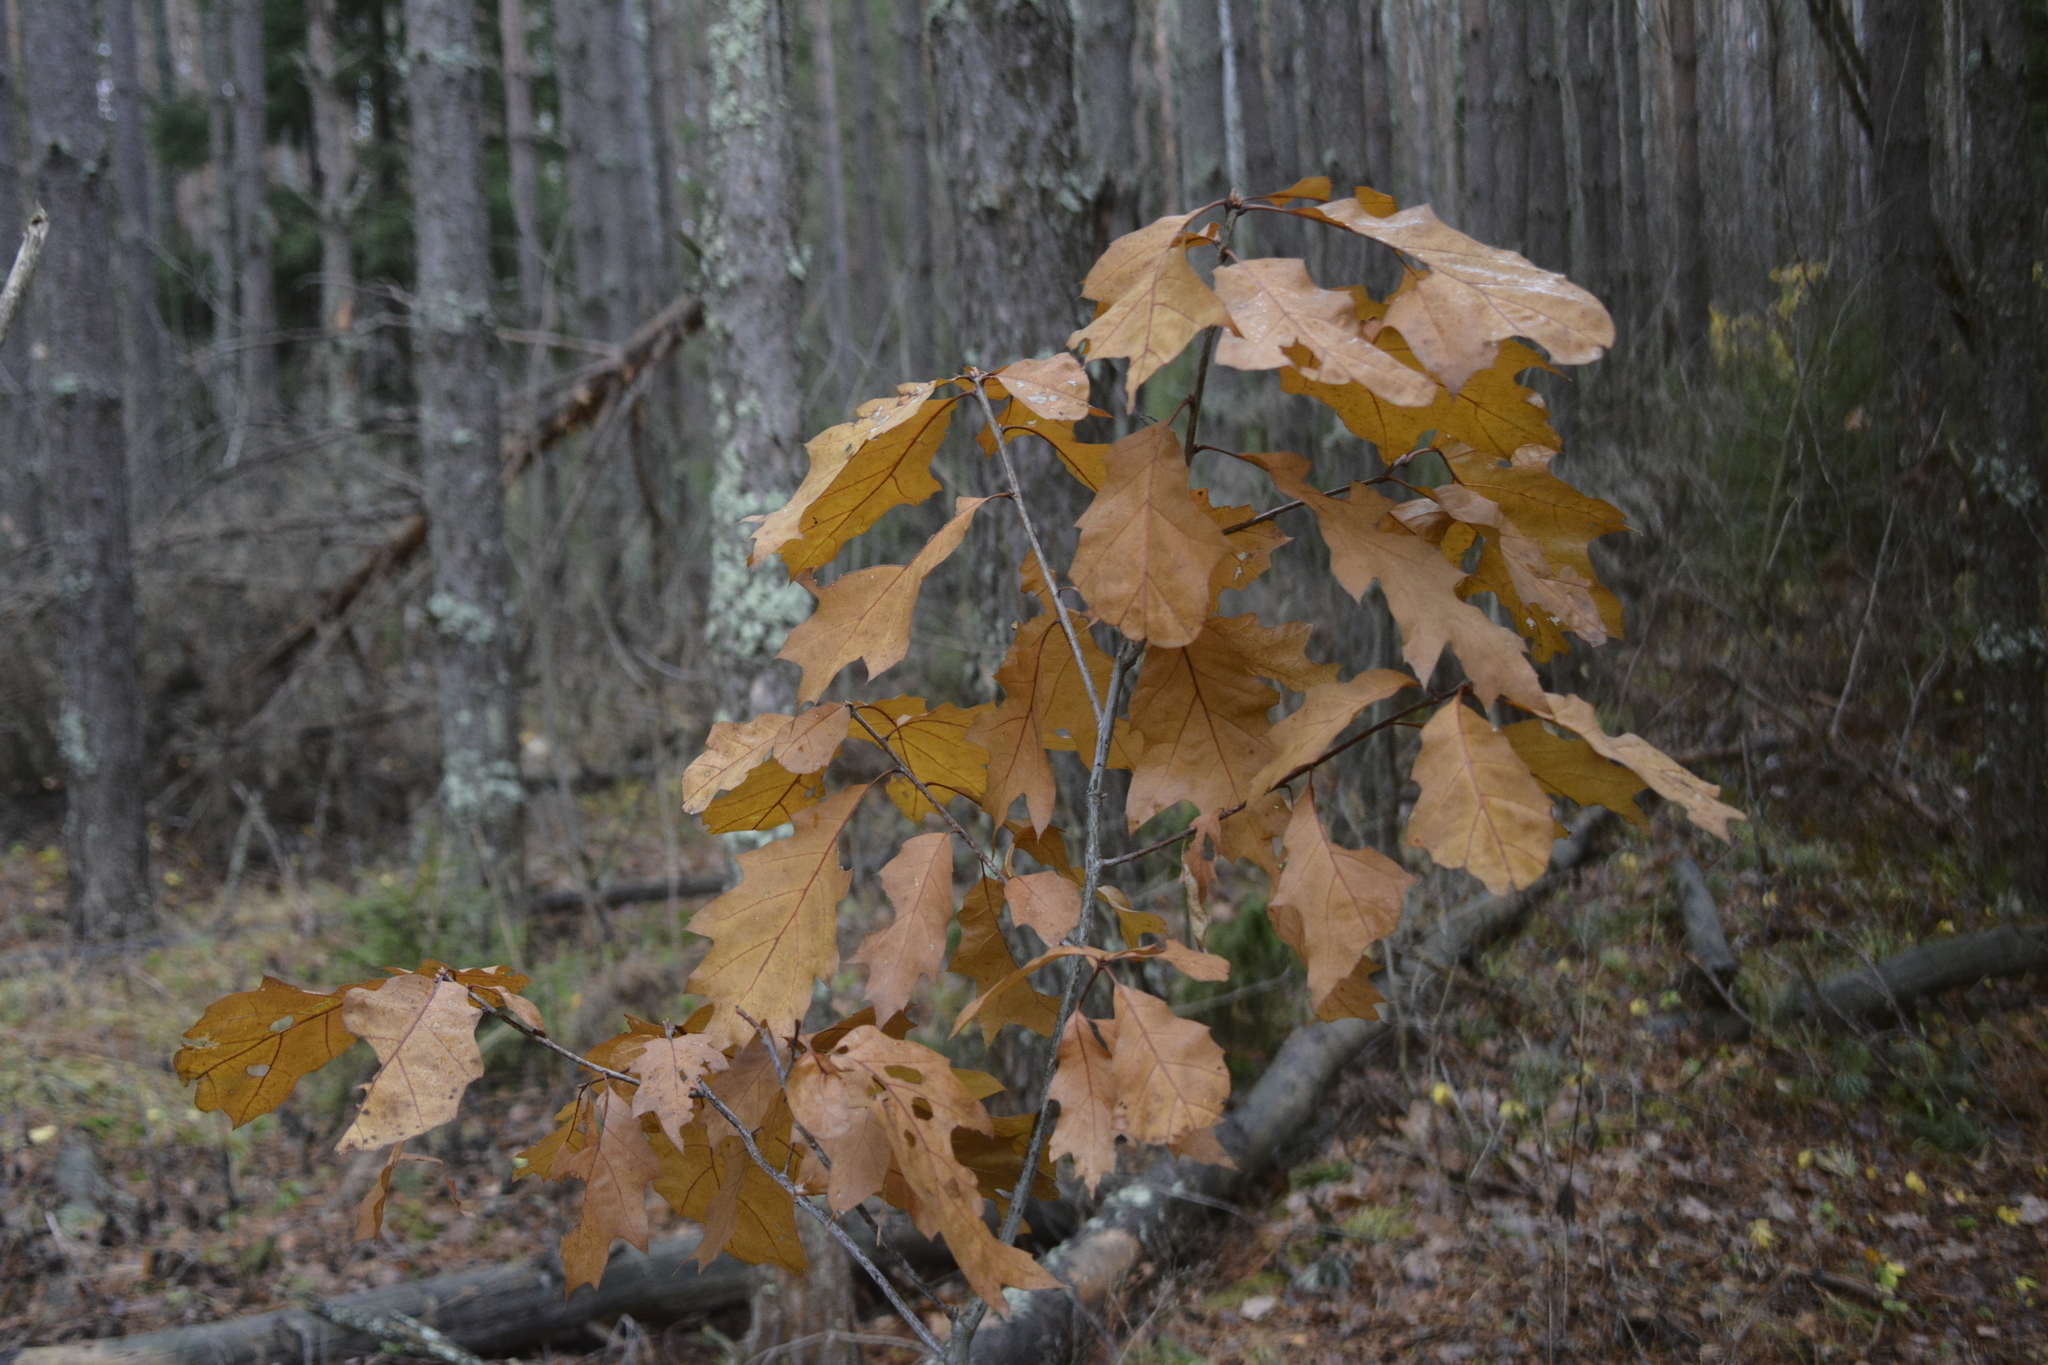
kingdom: Plantae
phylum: Tracheophyta
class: Magnoliopsida
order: Fagales
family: Fagaceae
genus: Quercus
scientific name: Quercus rubra
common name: Red oak
